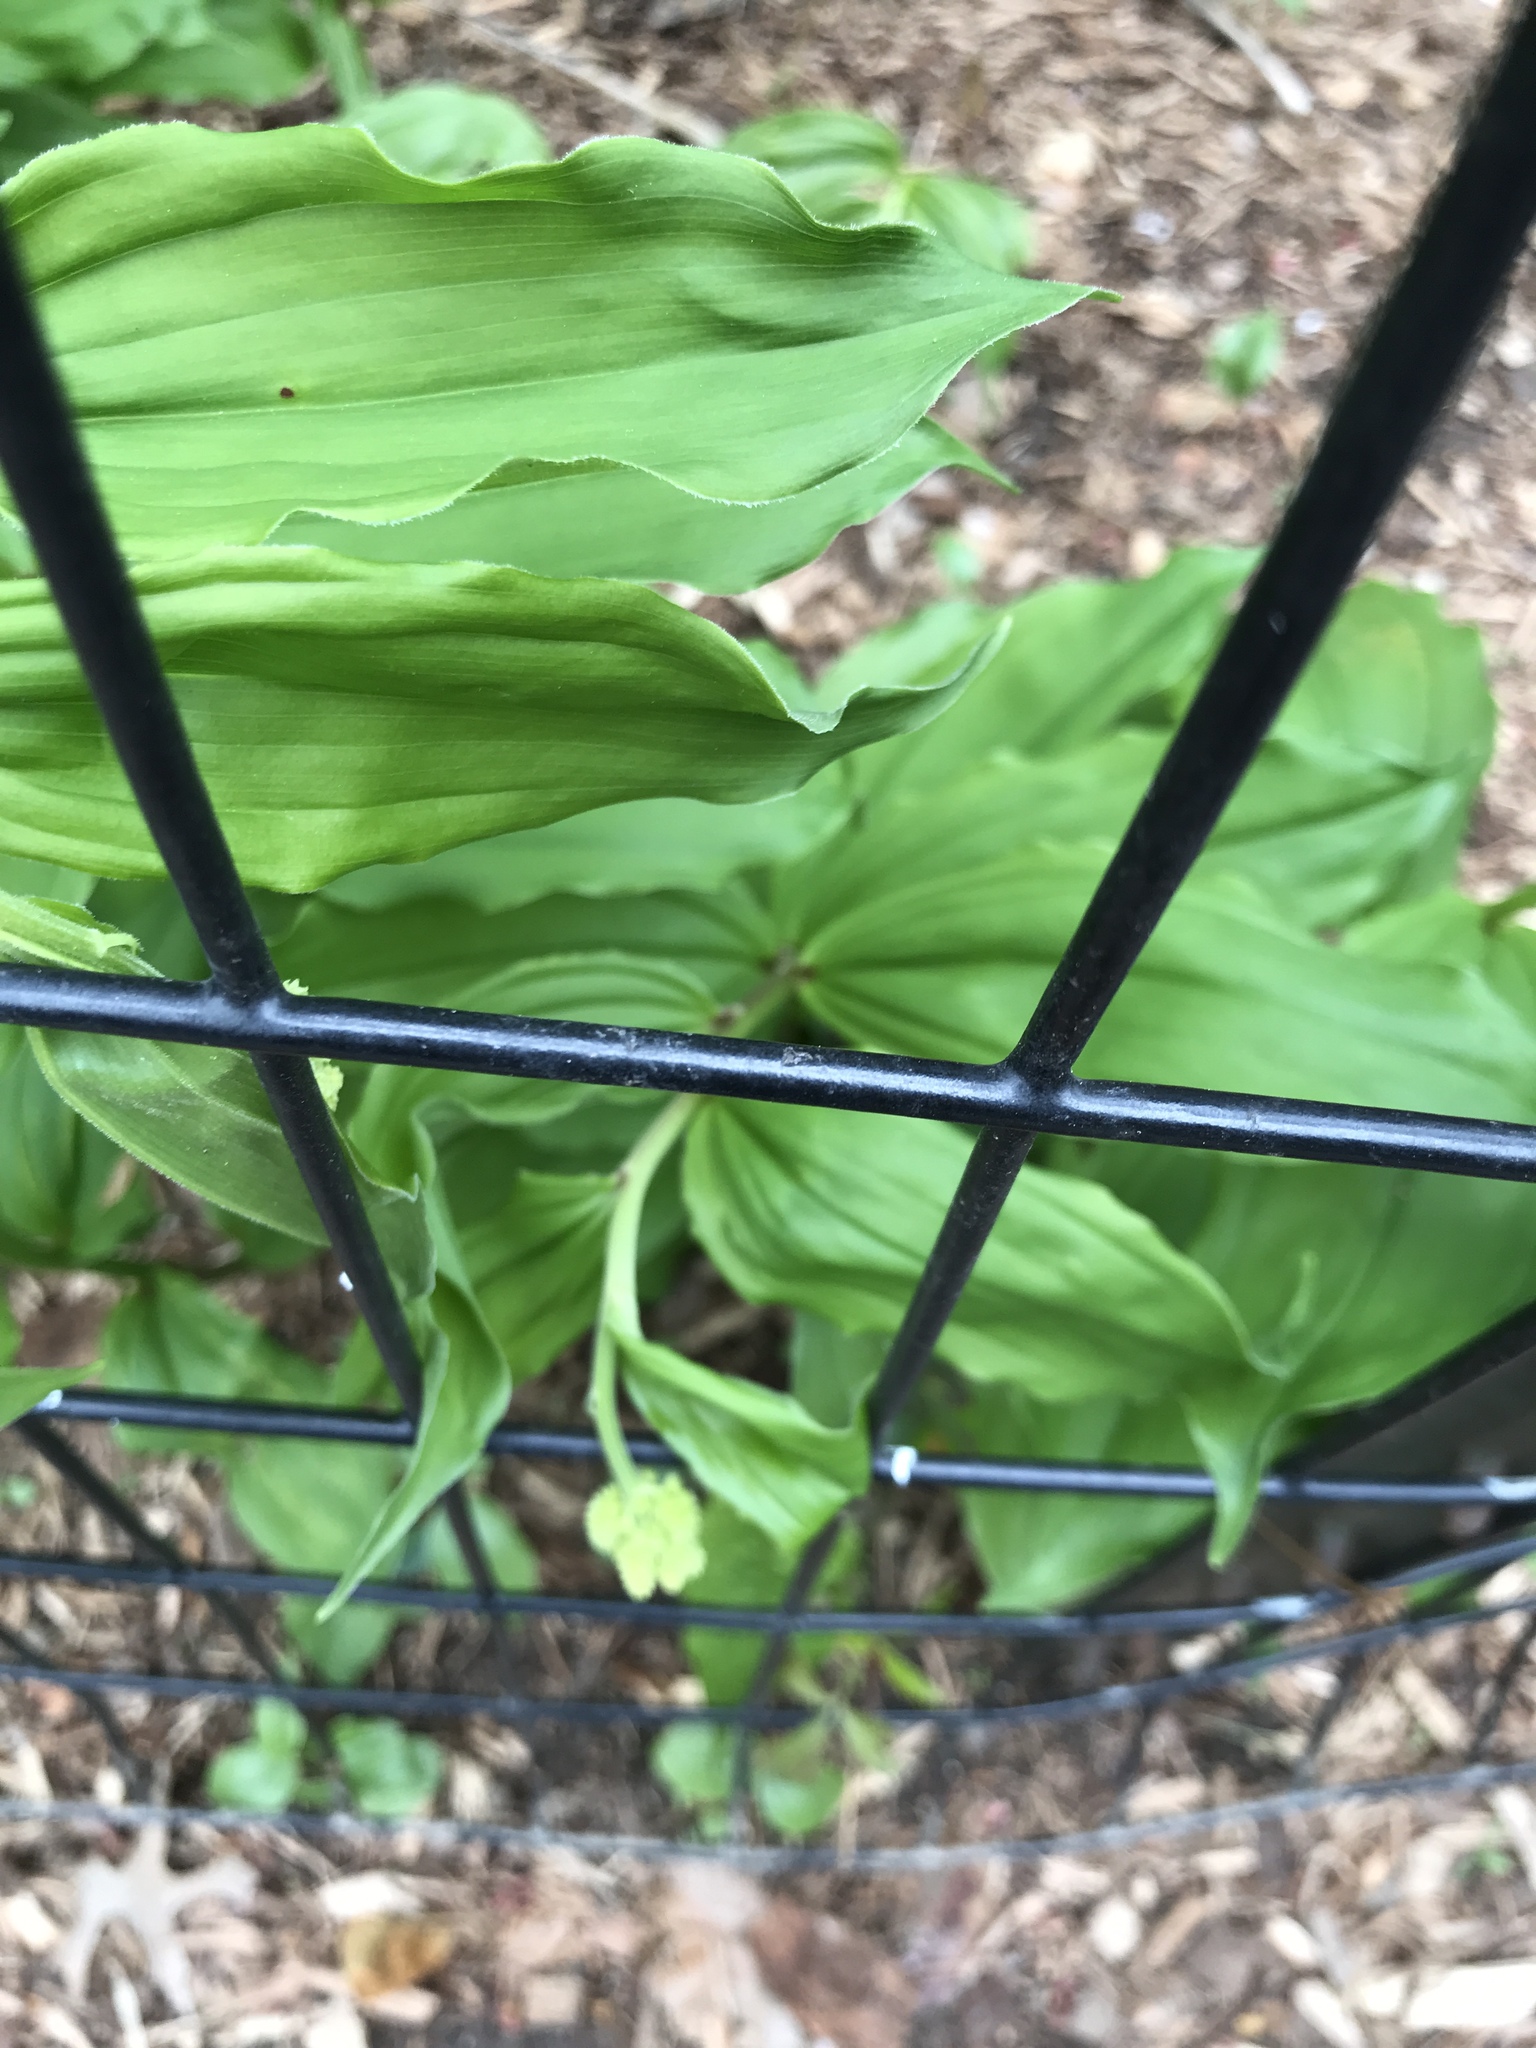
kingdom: Plantae
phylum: Tracheophyta
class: Liliopsida
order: Asparagales
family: Asparagaceae
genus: Maianthemum
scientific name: Maianthemum racemosum
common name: False spikenard
